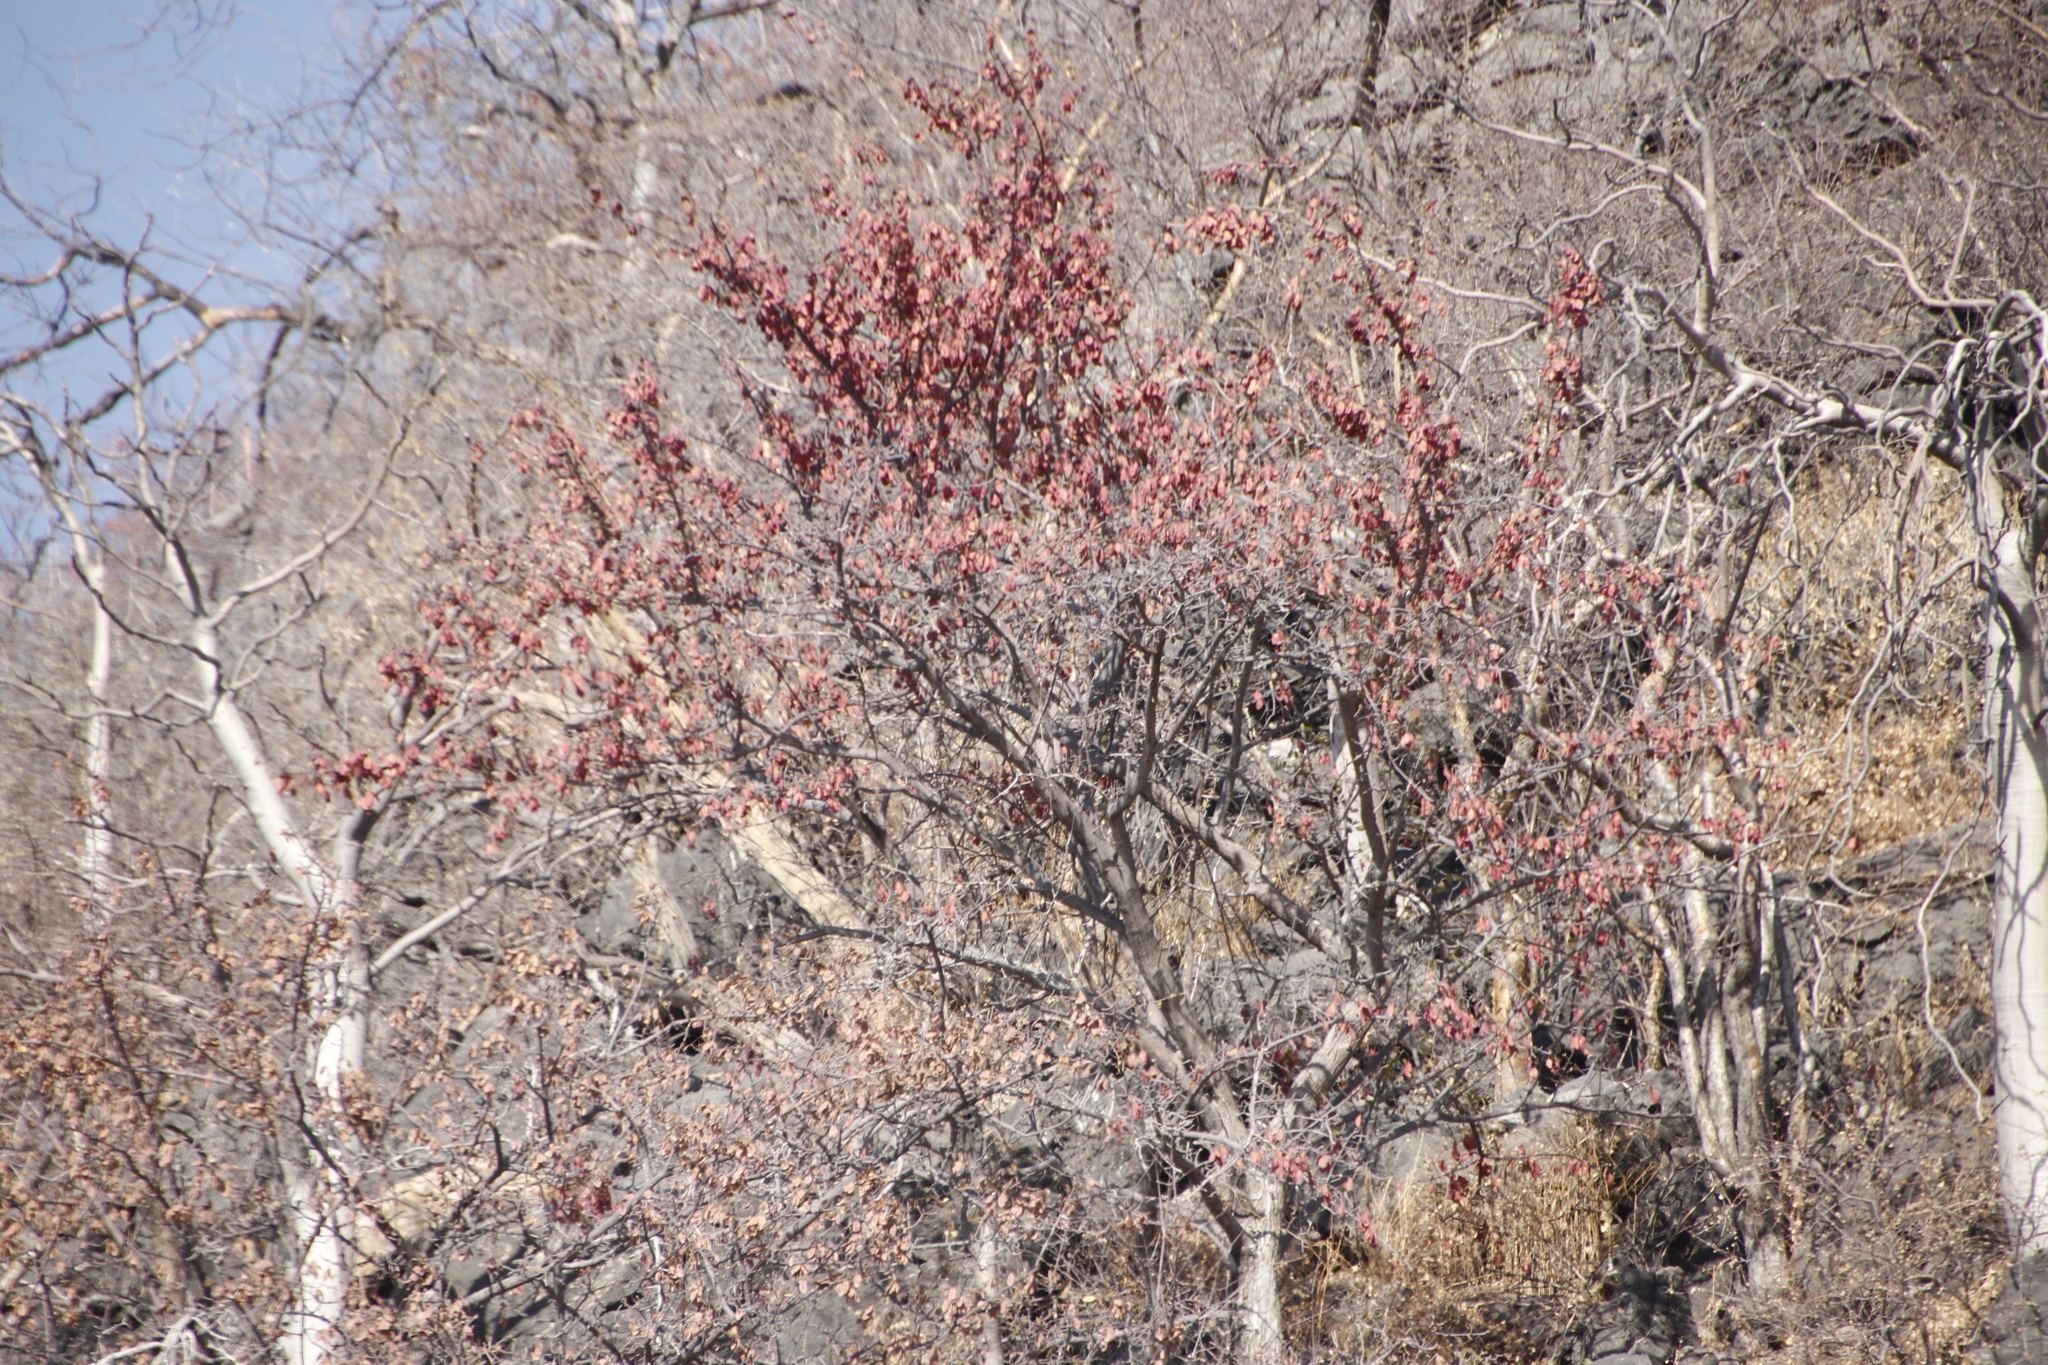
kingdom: Plantae
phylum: Tracheophyta
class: Magnoliopsida
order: Myrtales
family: Combretaceae
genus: Terminalia
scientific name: Terminalia prunioides
